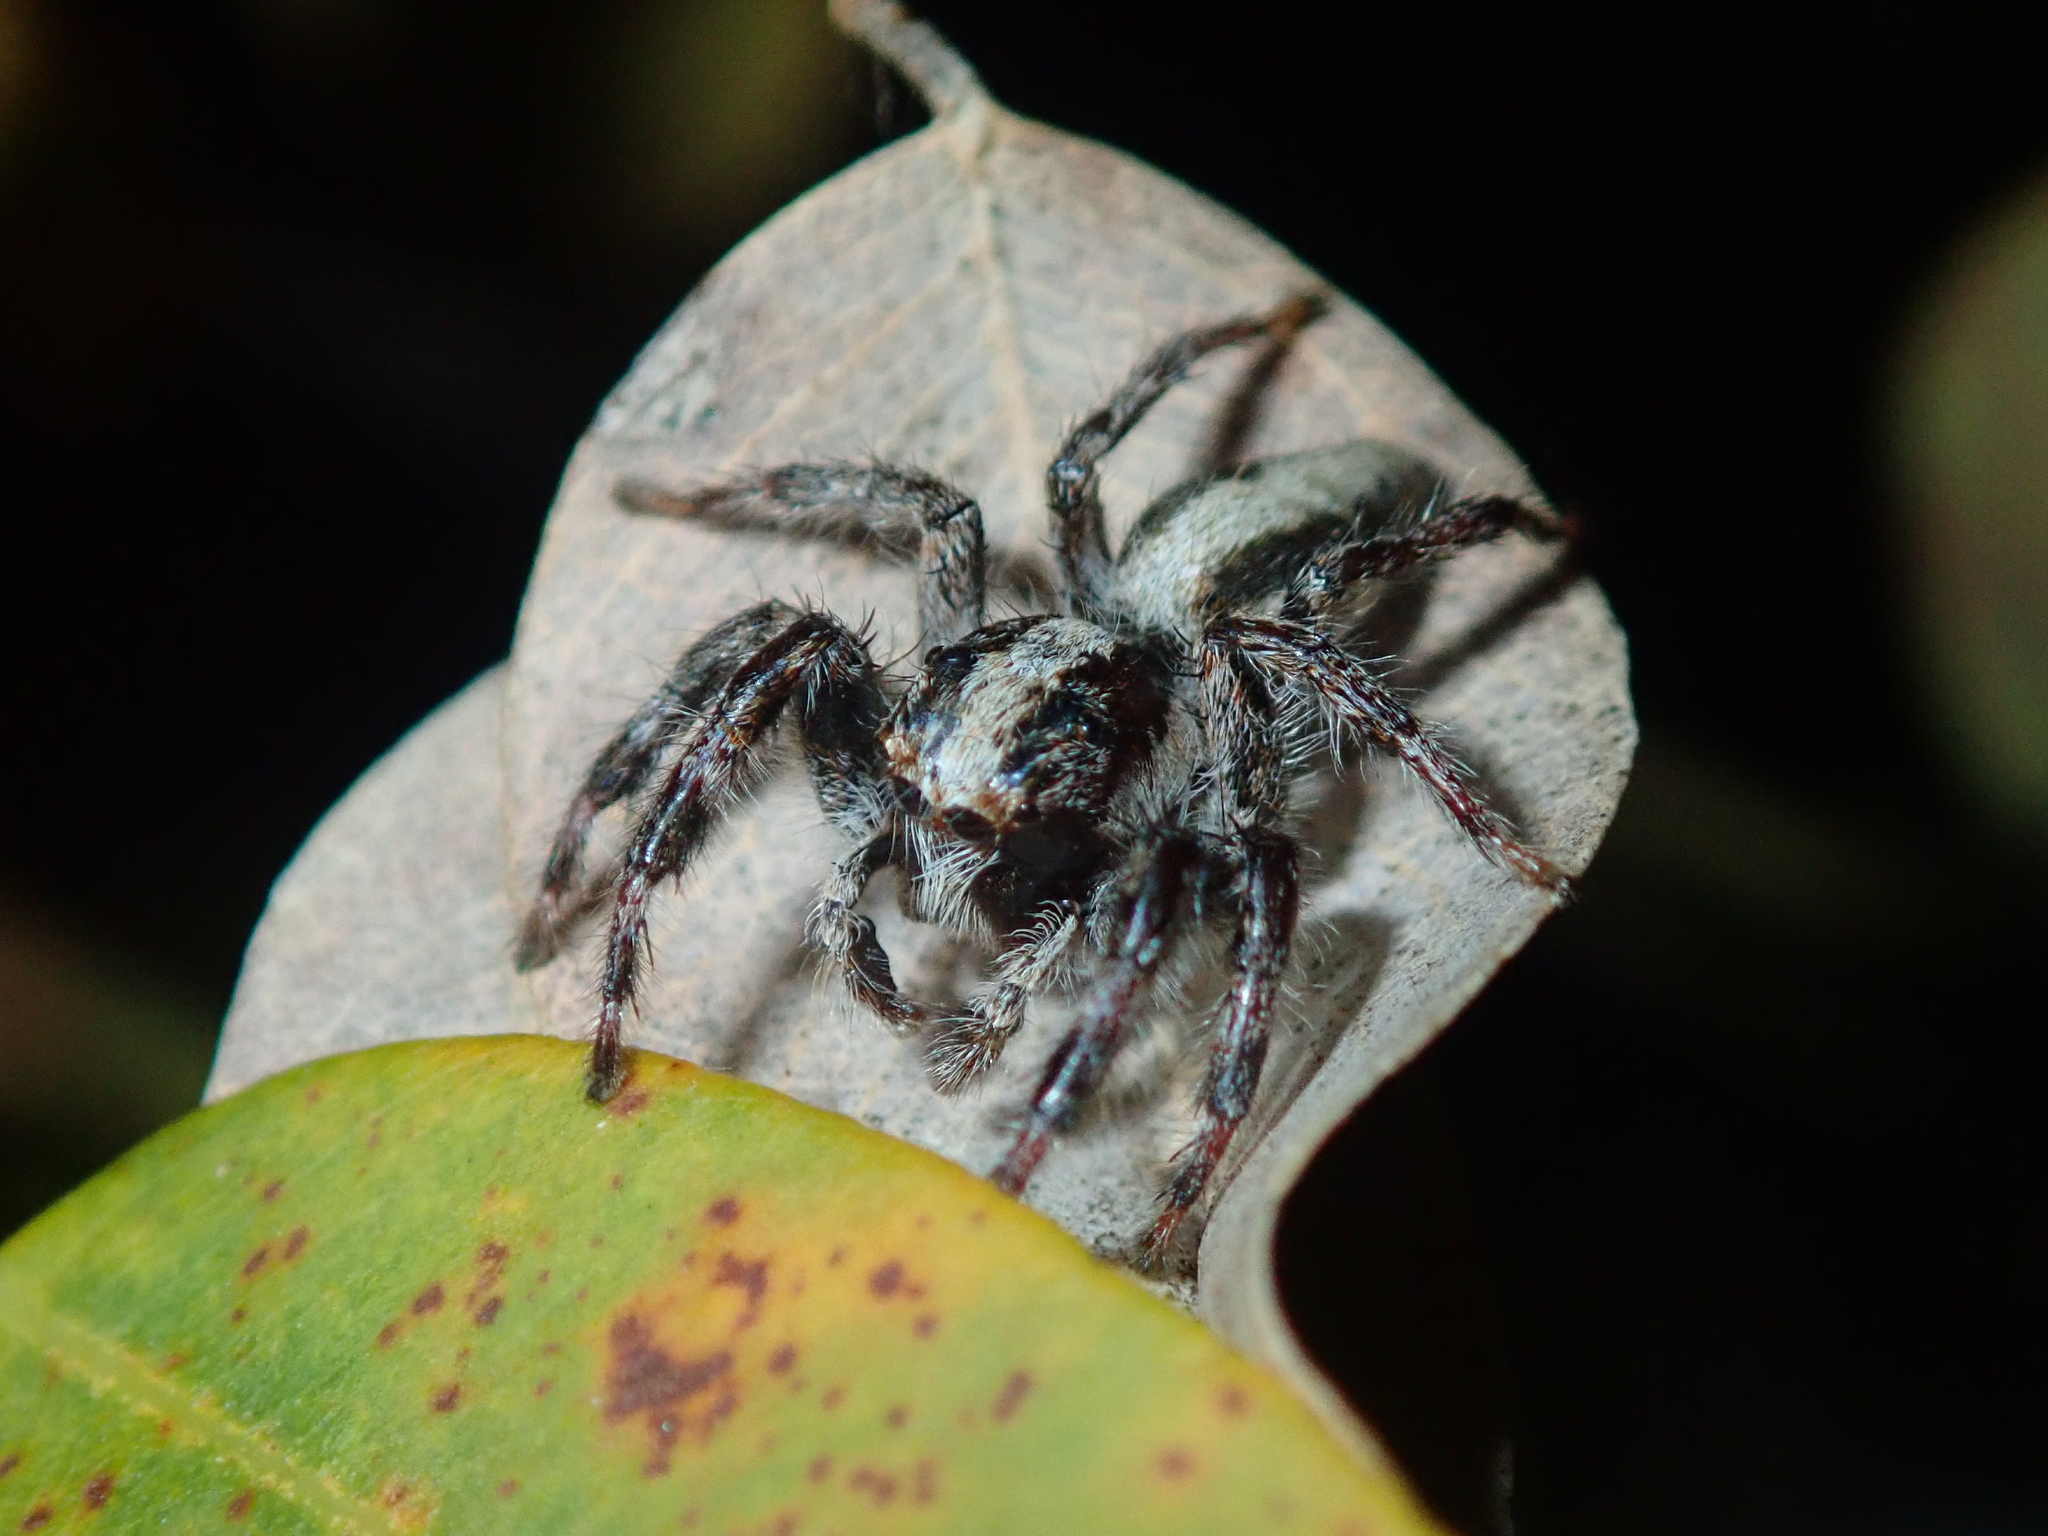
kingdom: Animalia
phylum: Arthropoda
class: Arachnida
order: Araneae
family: Salticidae
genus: Megafreya
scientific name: Megafreya sutrix
